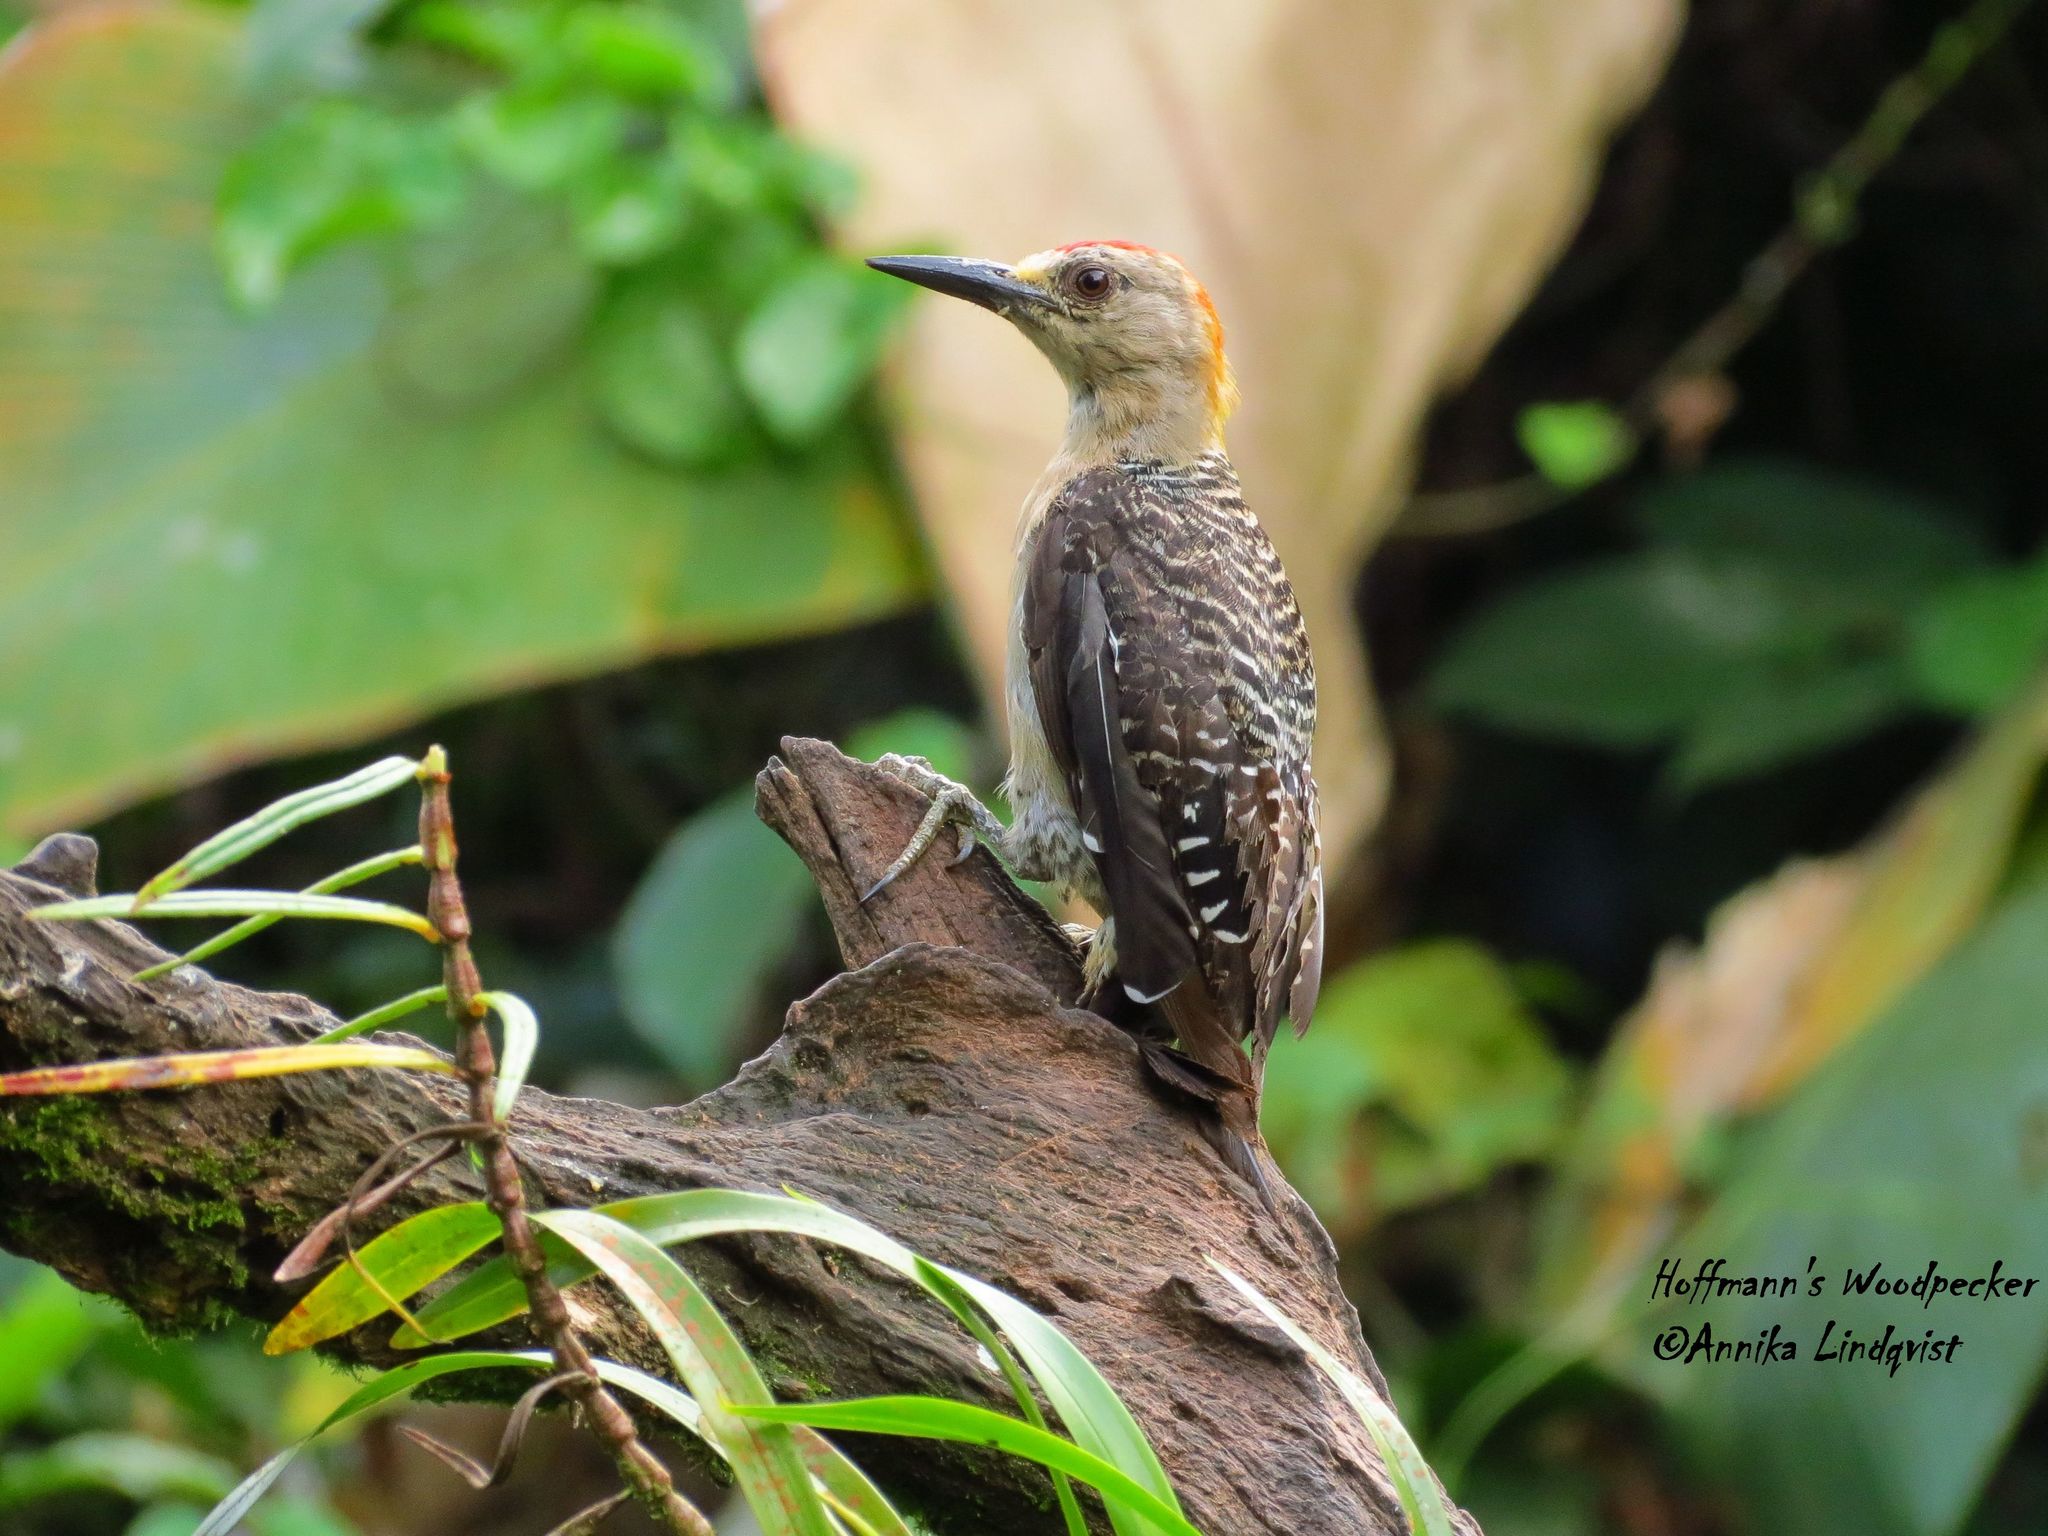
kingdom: Animalia
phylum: Chordata
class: Aves
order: Piciformes
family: Picidae
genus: Melanerpes
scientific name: Melanerpes hoffmannii
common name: Hoffmann's woodpecker
